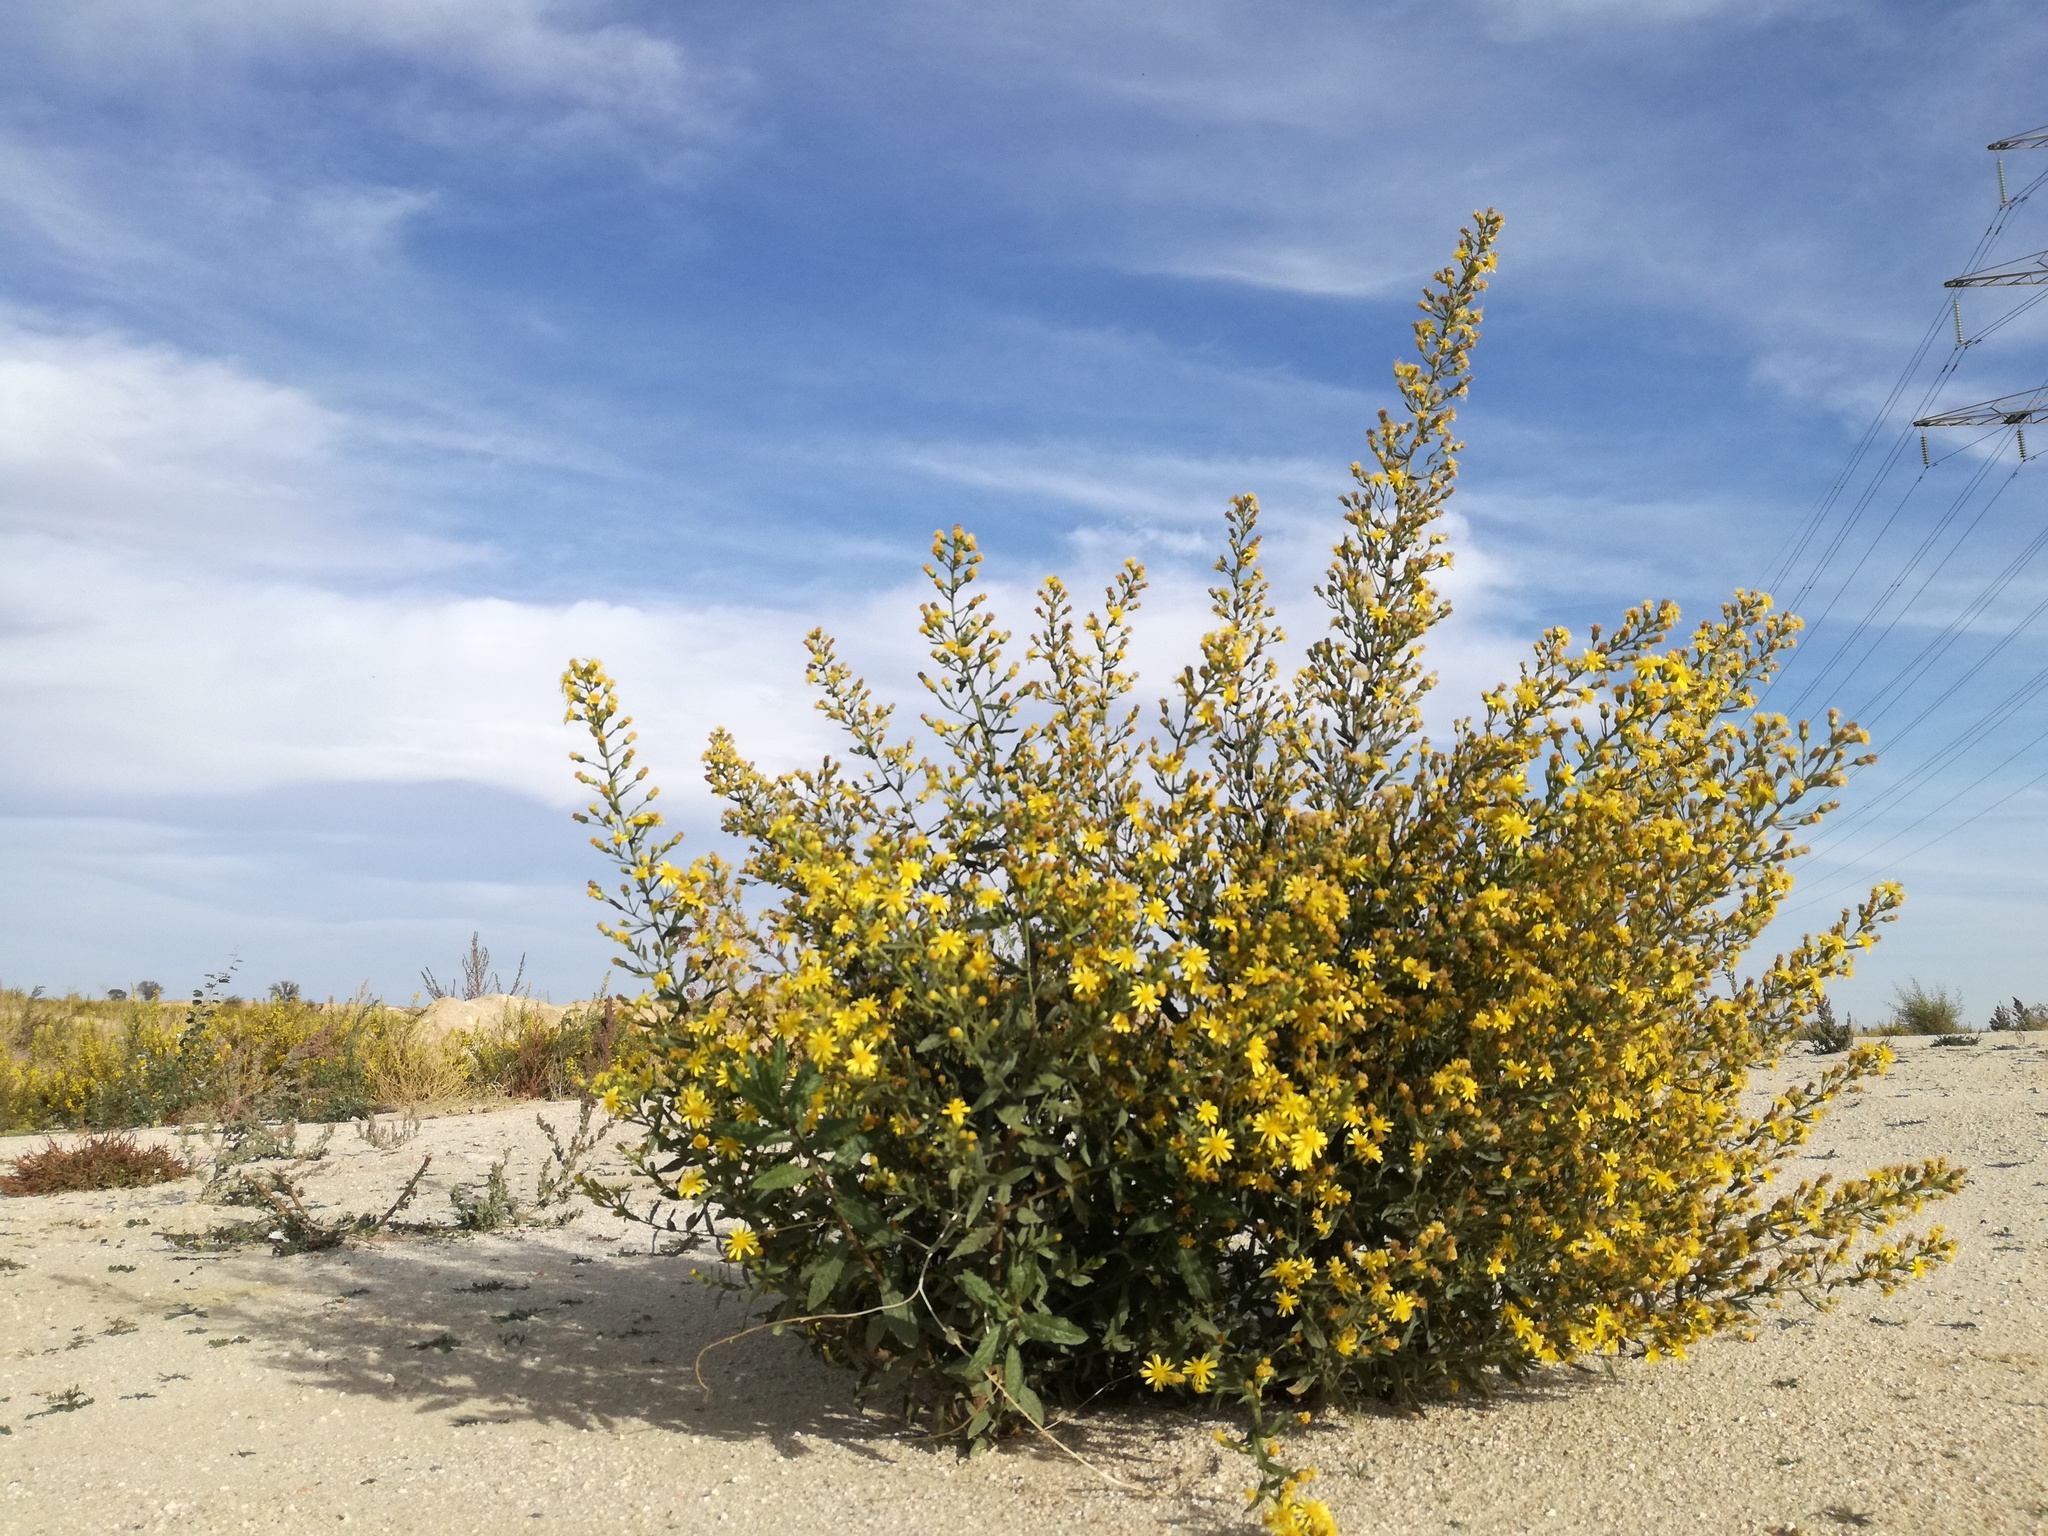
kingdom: Plantae
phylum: Tracheophyta
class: Magnoliopsida
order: Asterales
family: Asteraceae
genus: Dittrichia
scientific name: Dittrichia viscosa
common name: Woody fleabane
